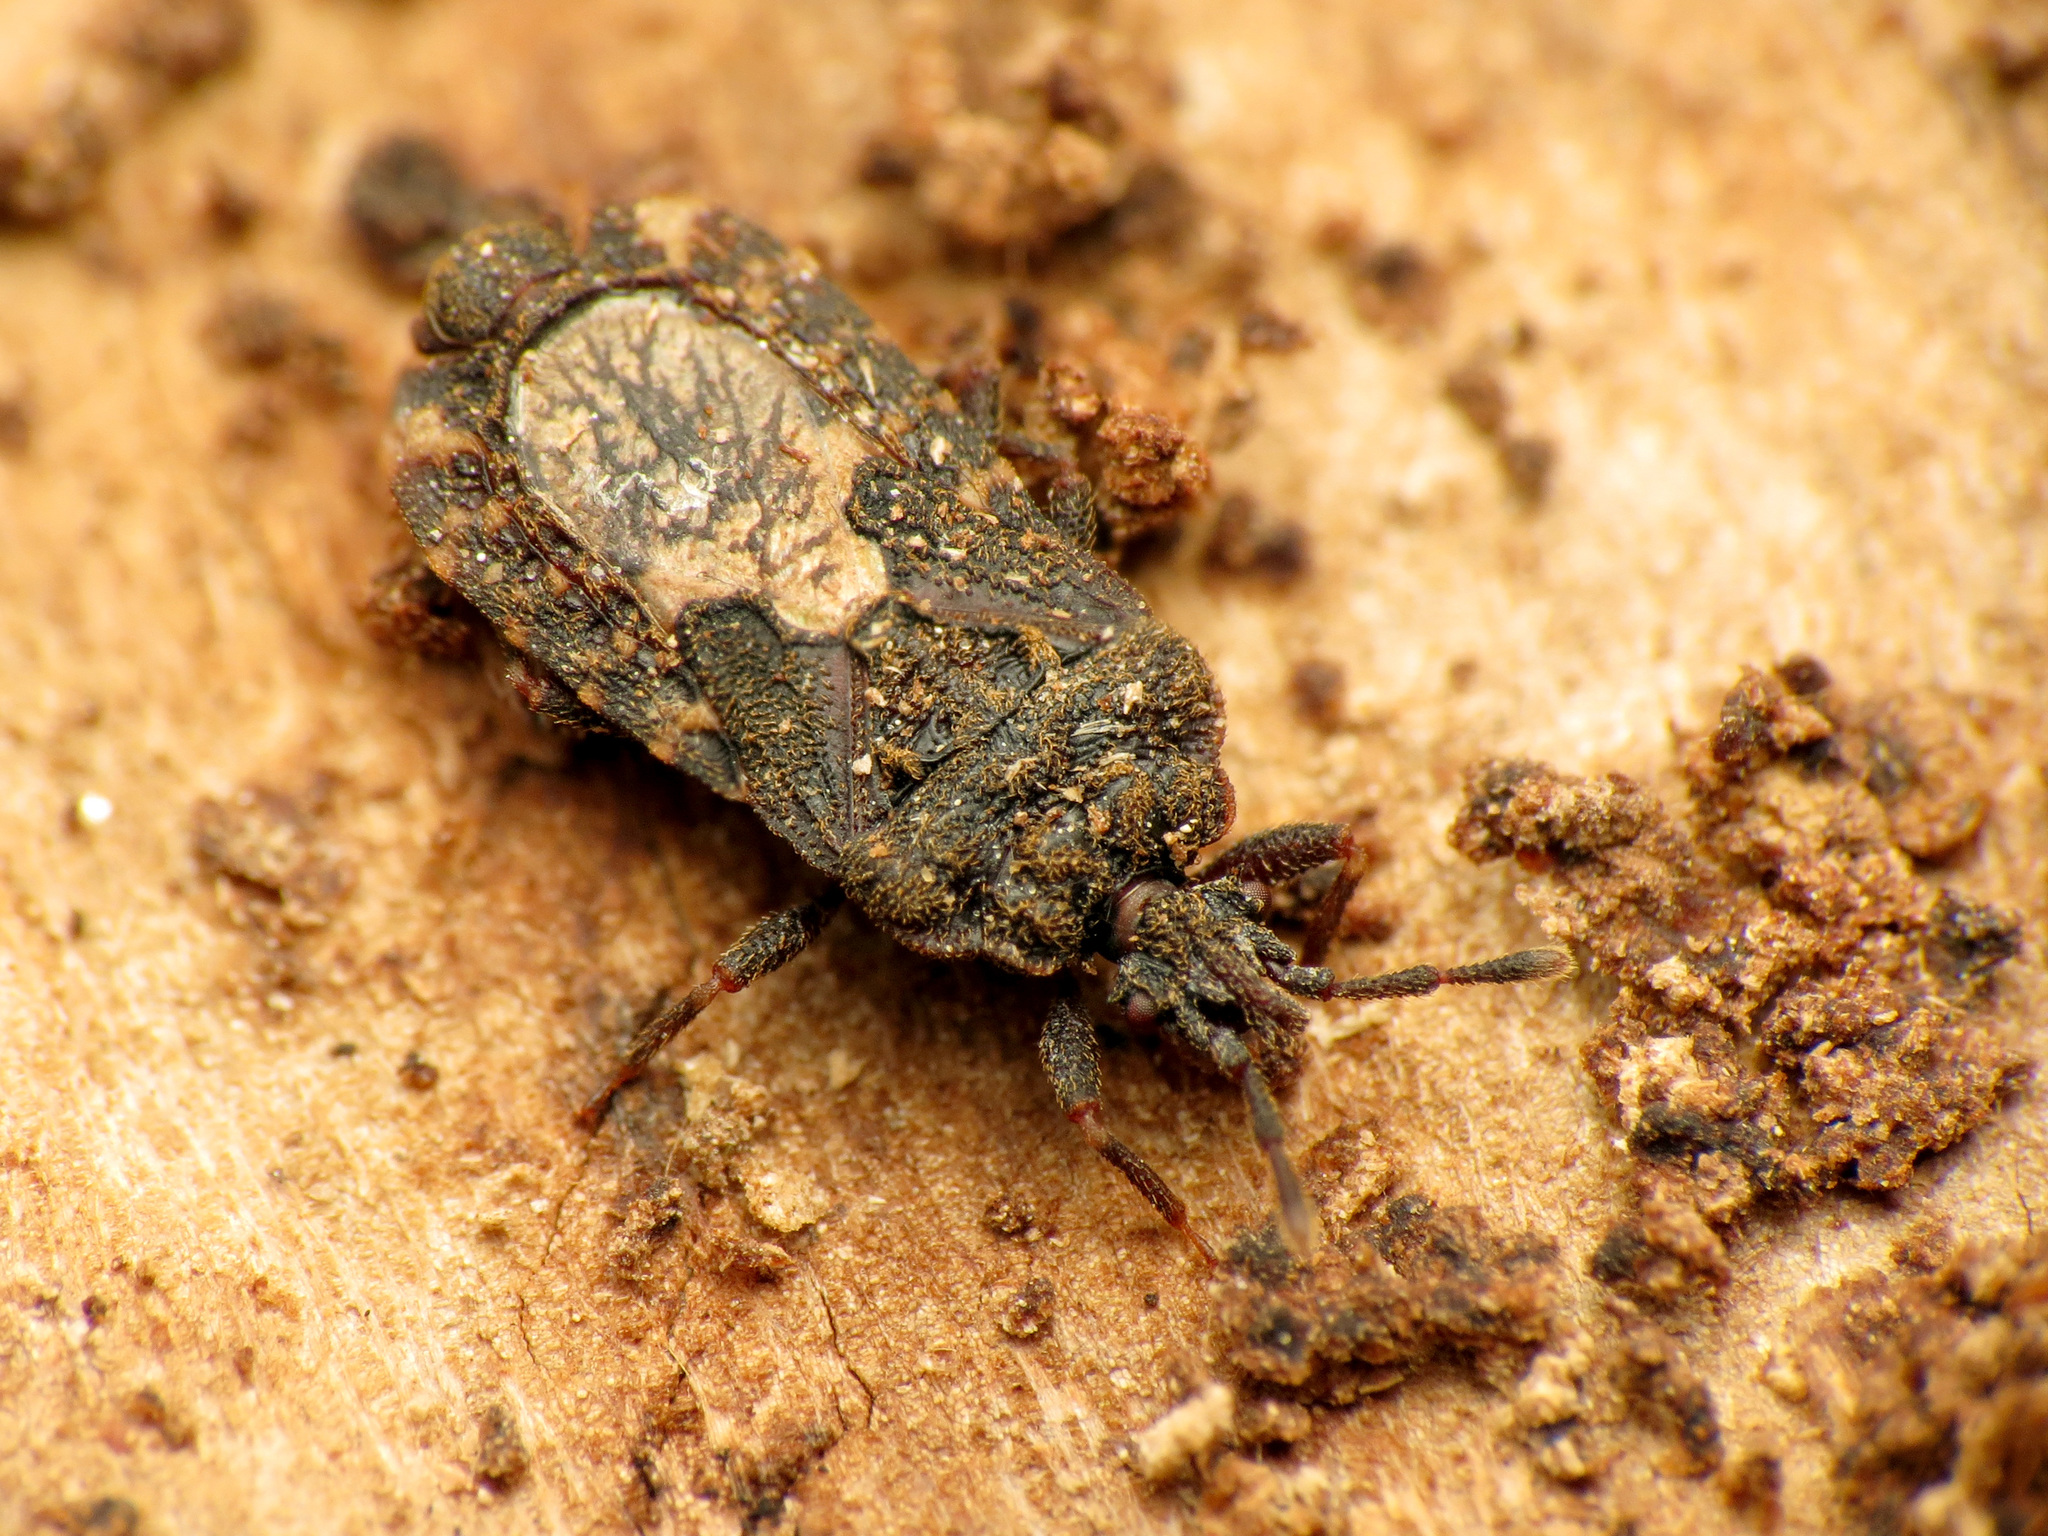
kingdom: Animalia
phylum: Arthropoda
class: Insecta
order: Hemiptera
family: Aradidae
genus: Mezira
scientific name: Mezira
